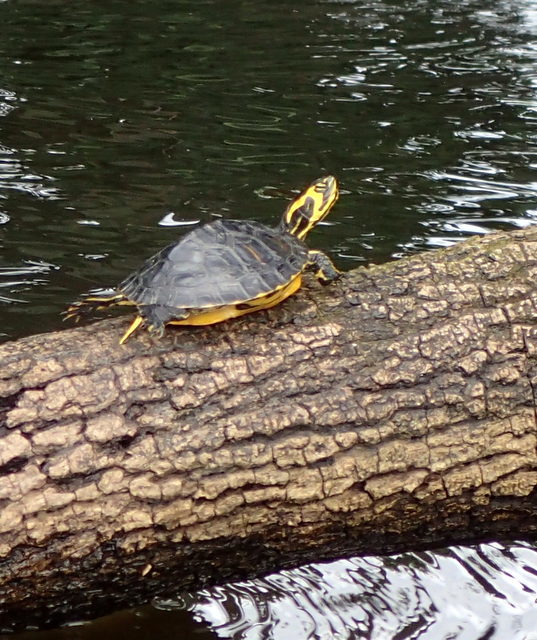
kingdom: Animalia
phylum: Chordata
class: Testudines
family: Emydidae
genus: Trachemys
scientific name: Trachemys scripta
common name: Slider
